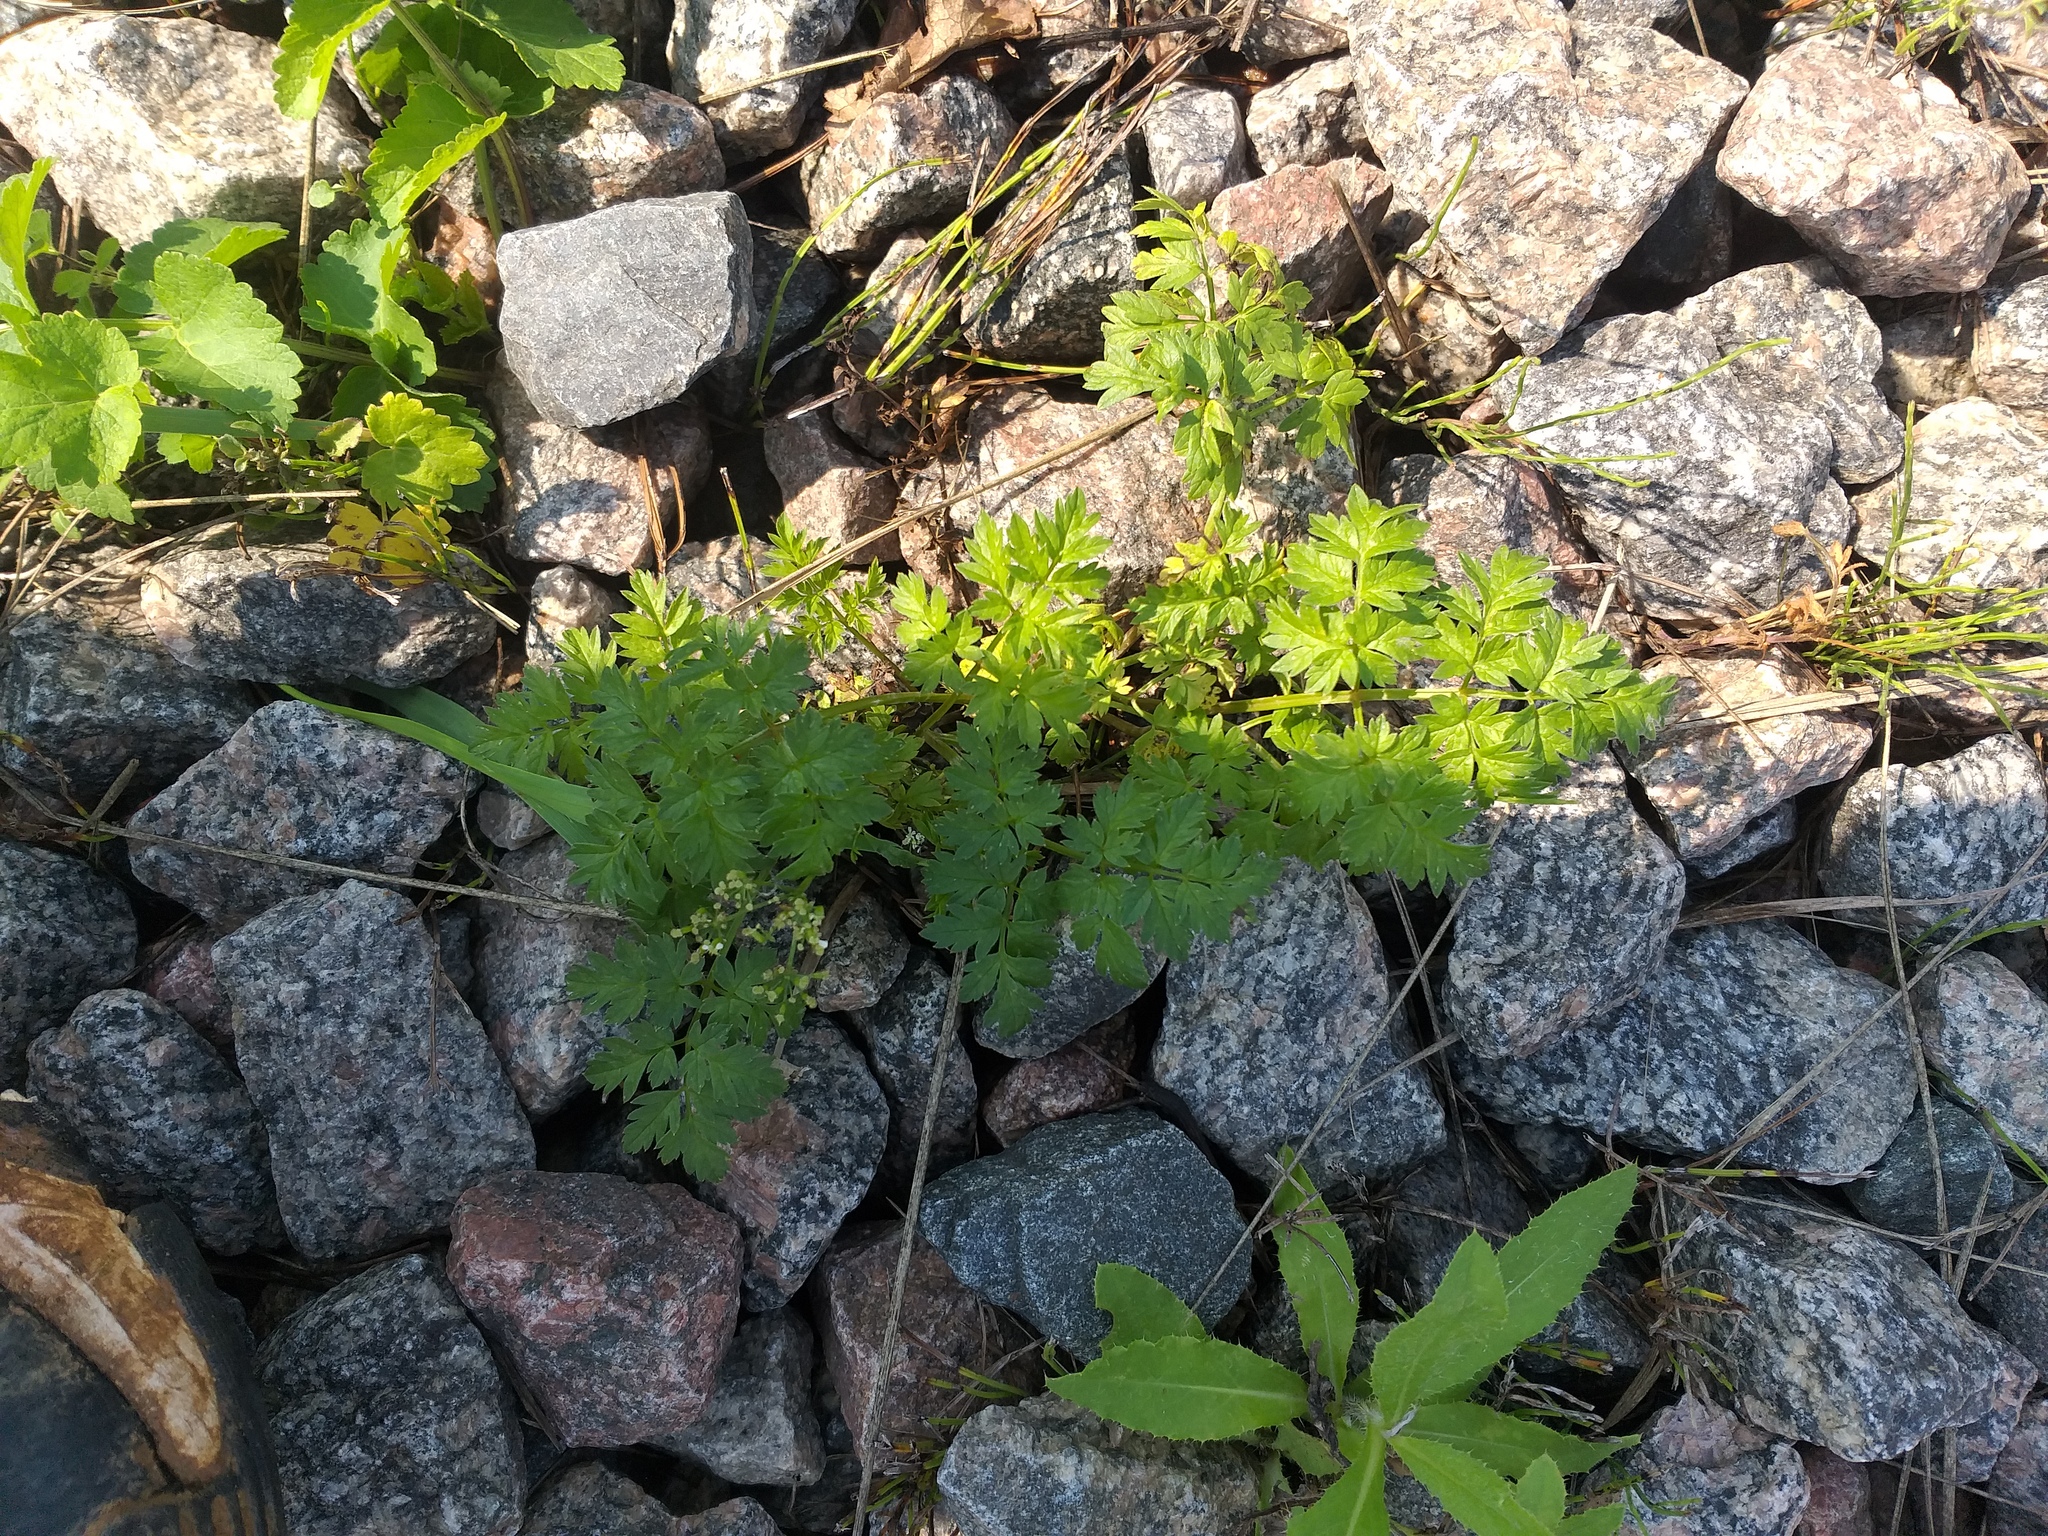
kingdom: Plantae
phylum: Tracheophyta
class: Magnoliopsida
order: Apiales
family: Apiaceae
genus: Anthriscus
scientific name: Anthriscus sylvestris
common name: Cow parsley
